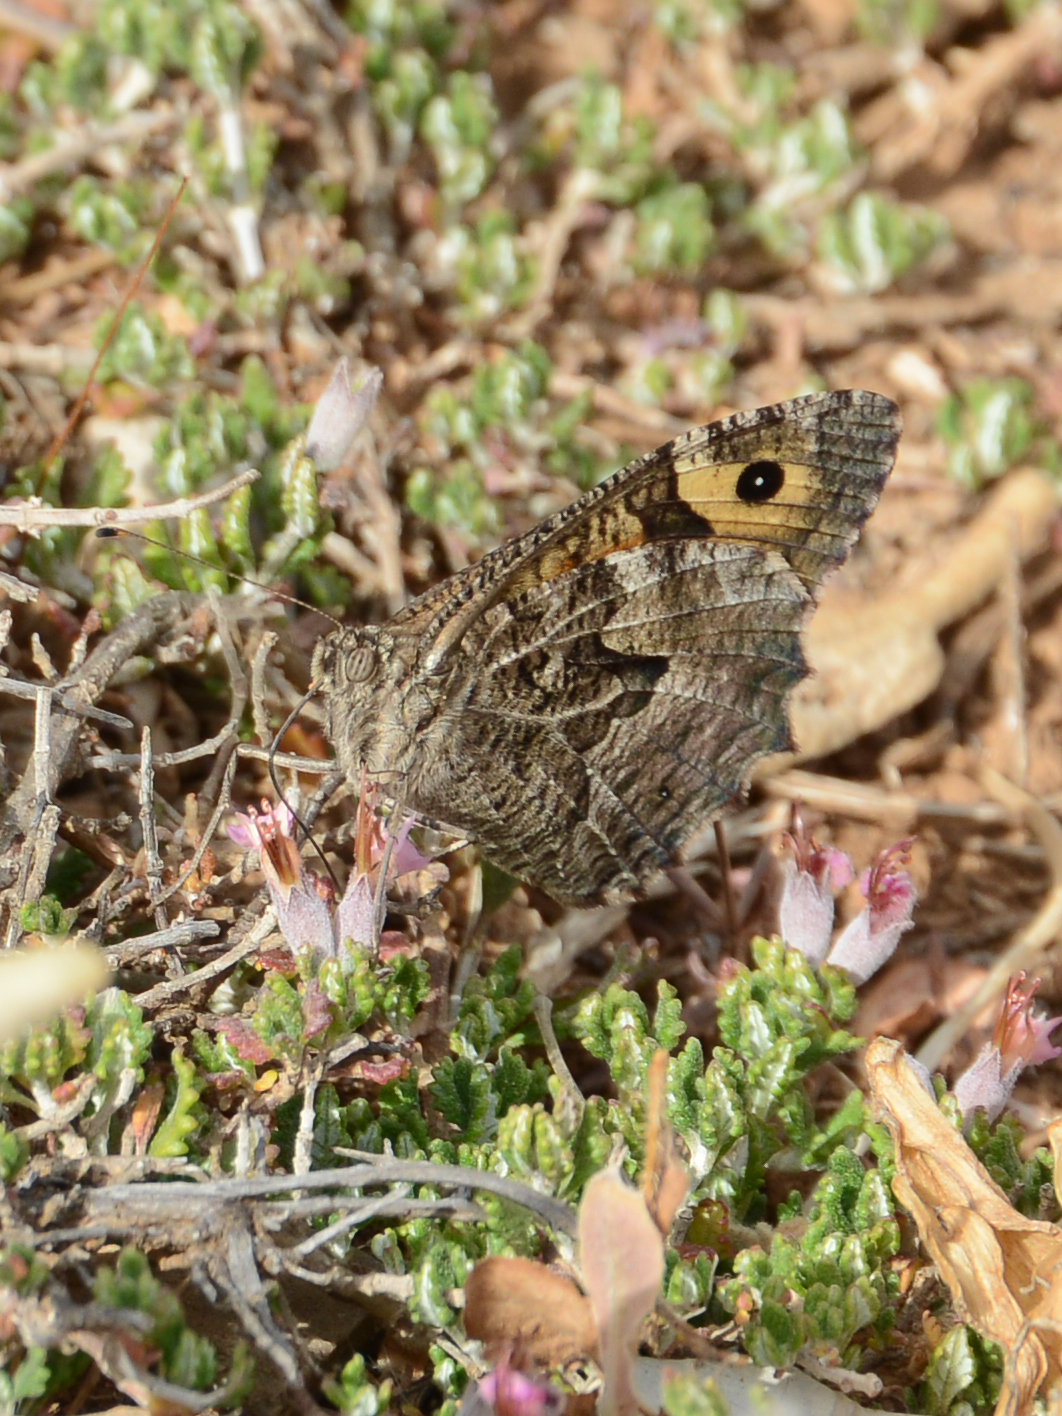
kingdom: Animalia
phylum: Arthropoda
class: Insecta
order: Lepidoptera
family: Nymphalidae
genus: Hipparchia
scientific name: Hipparchia cretica
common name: Cretan grayling
